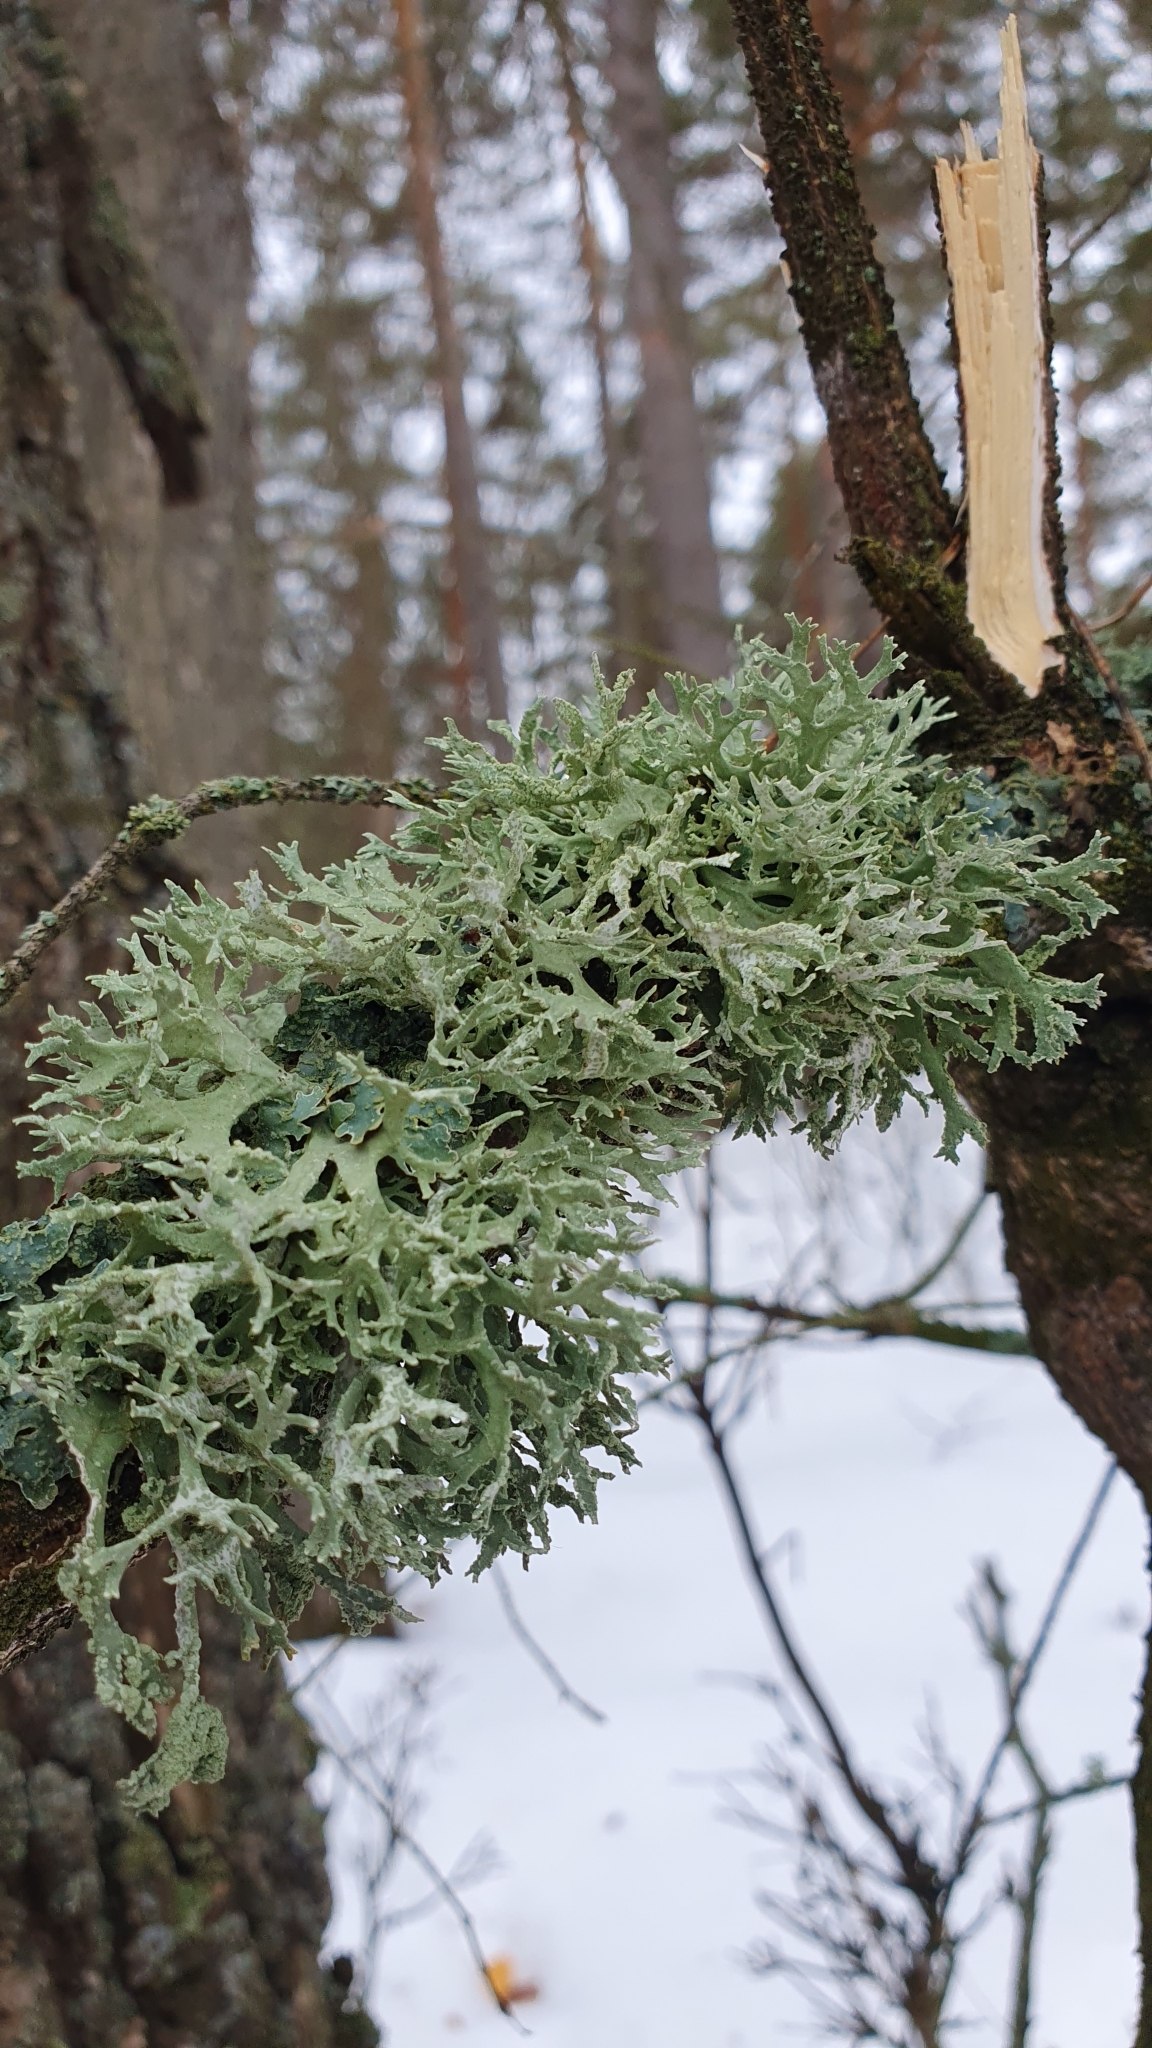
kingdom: Fungi
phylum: Ascomycota
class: Lecanoromycetes
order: Lecanorales
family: Parmeliaceae
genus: Evernia
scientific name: Evernia prunastri
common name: Oak moss
